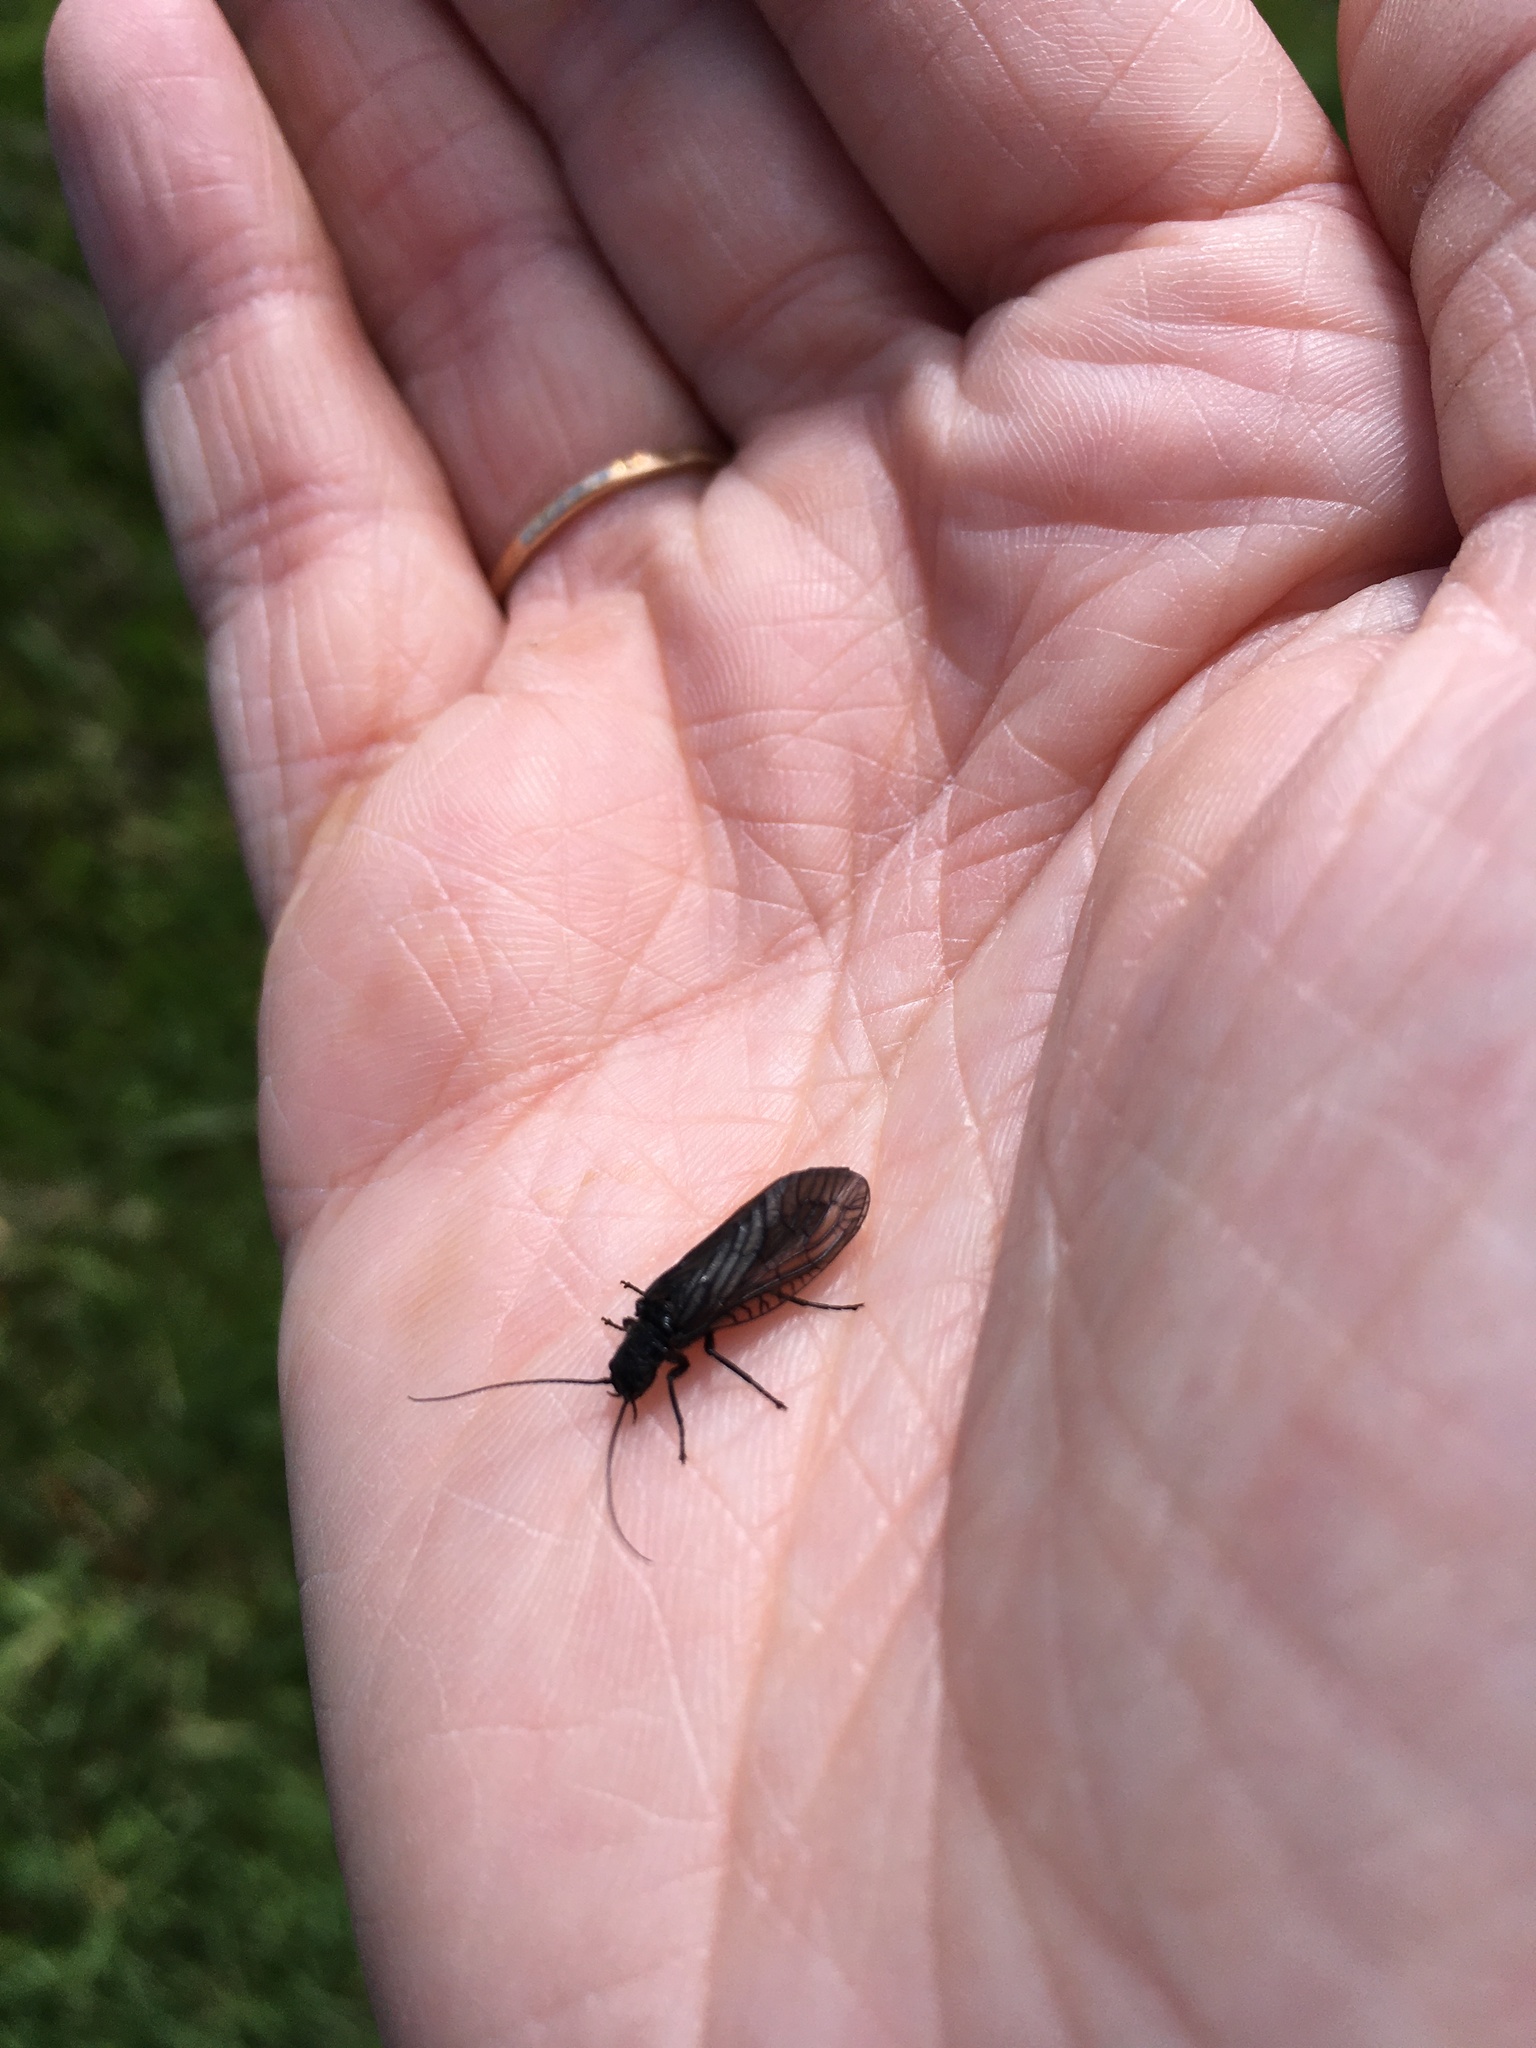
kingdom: Animalia
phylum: Arthropoda
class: Insecta
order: Megaloptera
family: Sialidae
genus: Sialis
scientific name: Sialis
